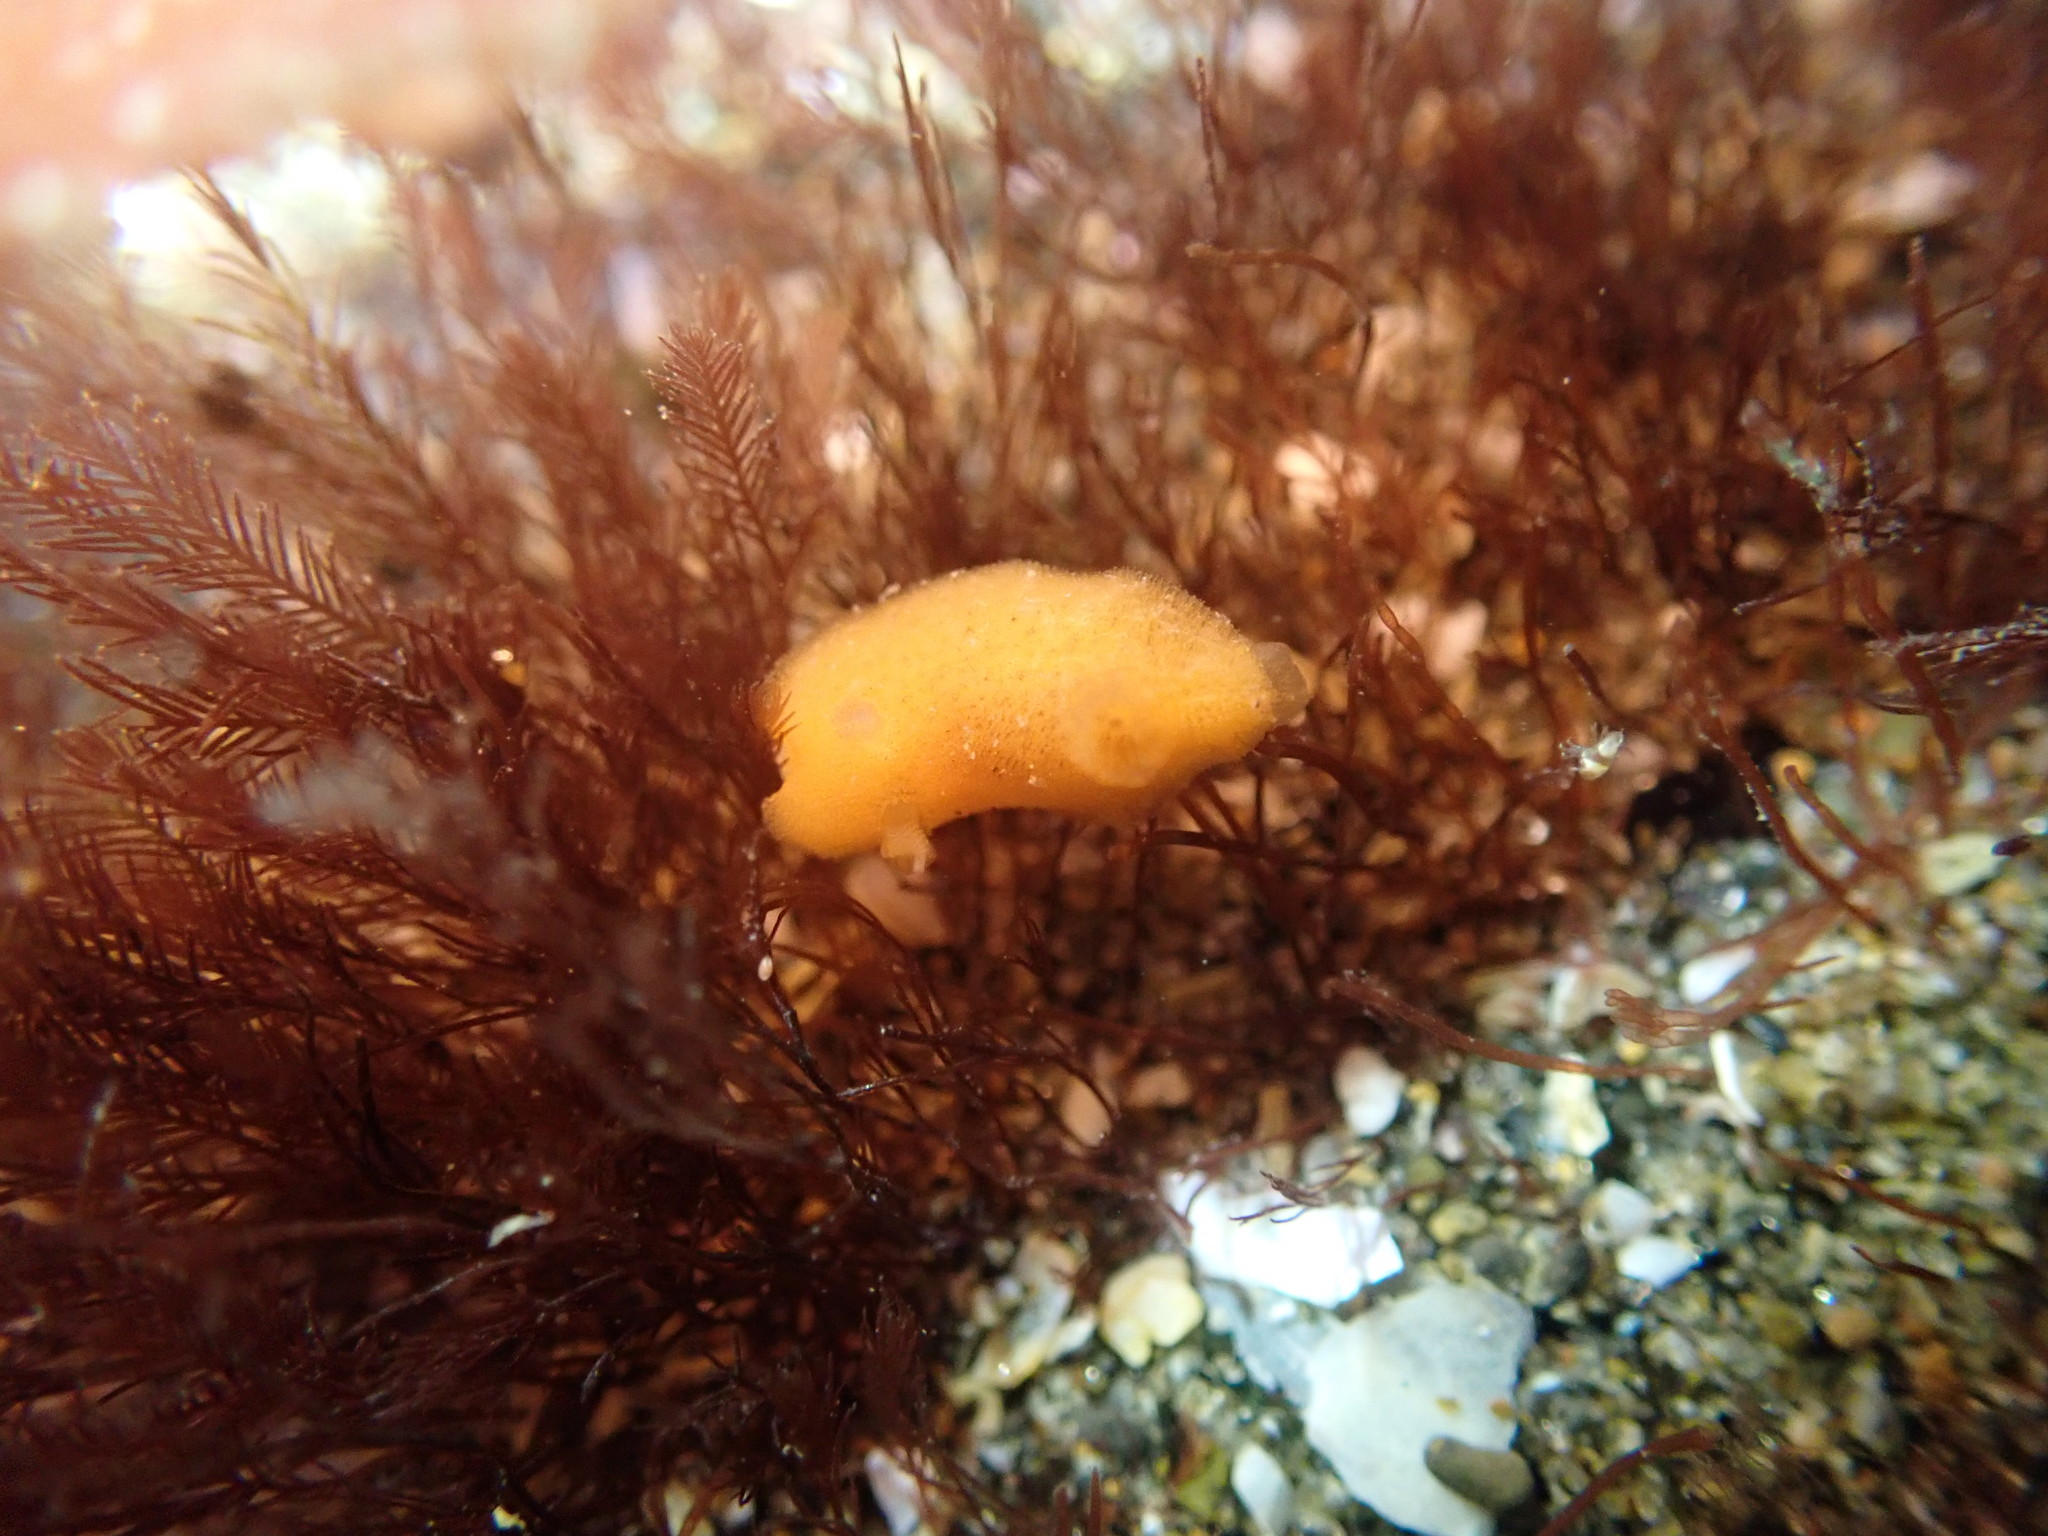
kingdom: Animalia
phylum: Mollusca
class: Gastropoda
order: Nudibranchia
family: Discodorididae
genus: Rostanga
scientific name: Rostanga muscula
